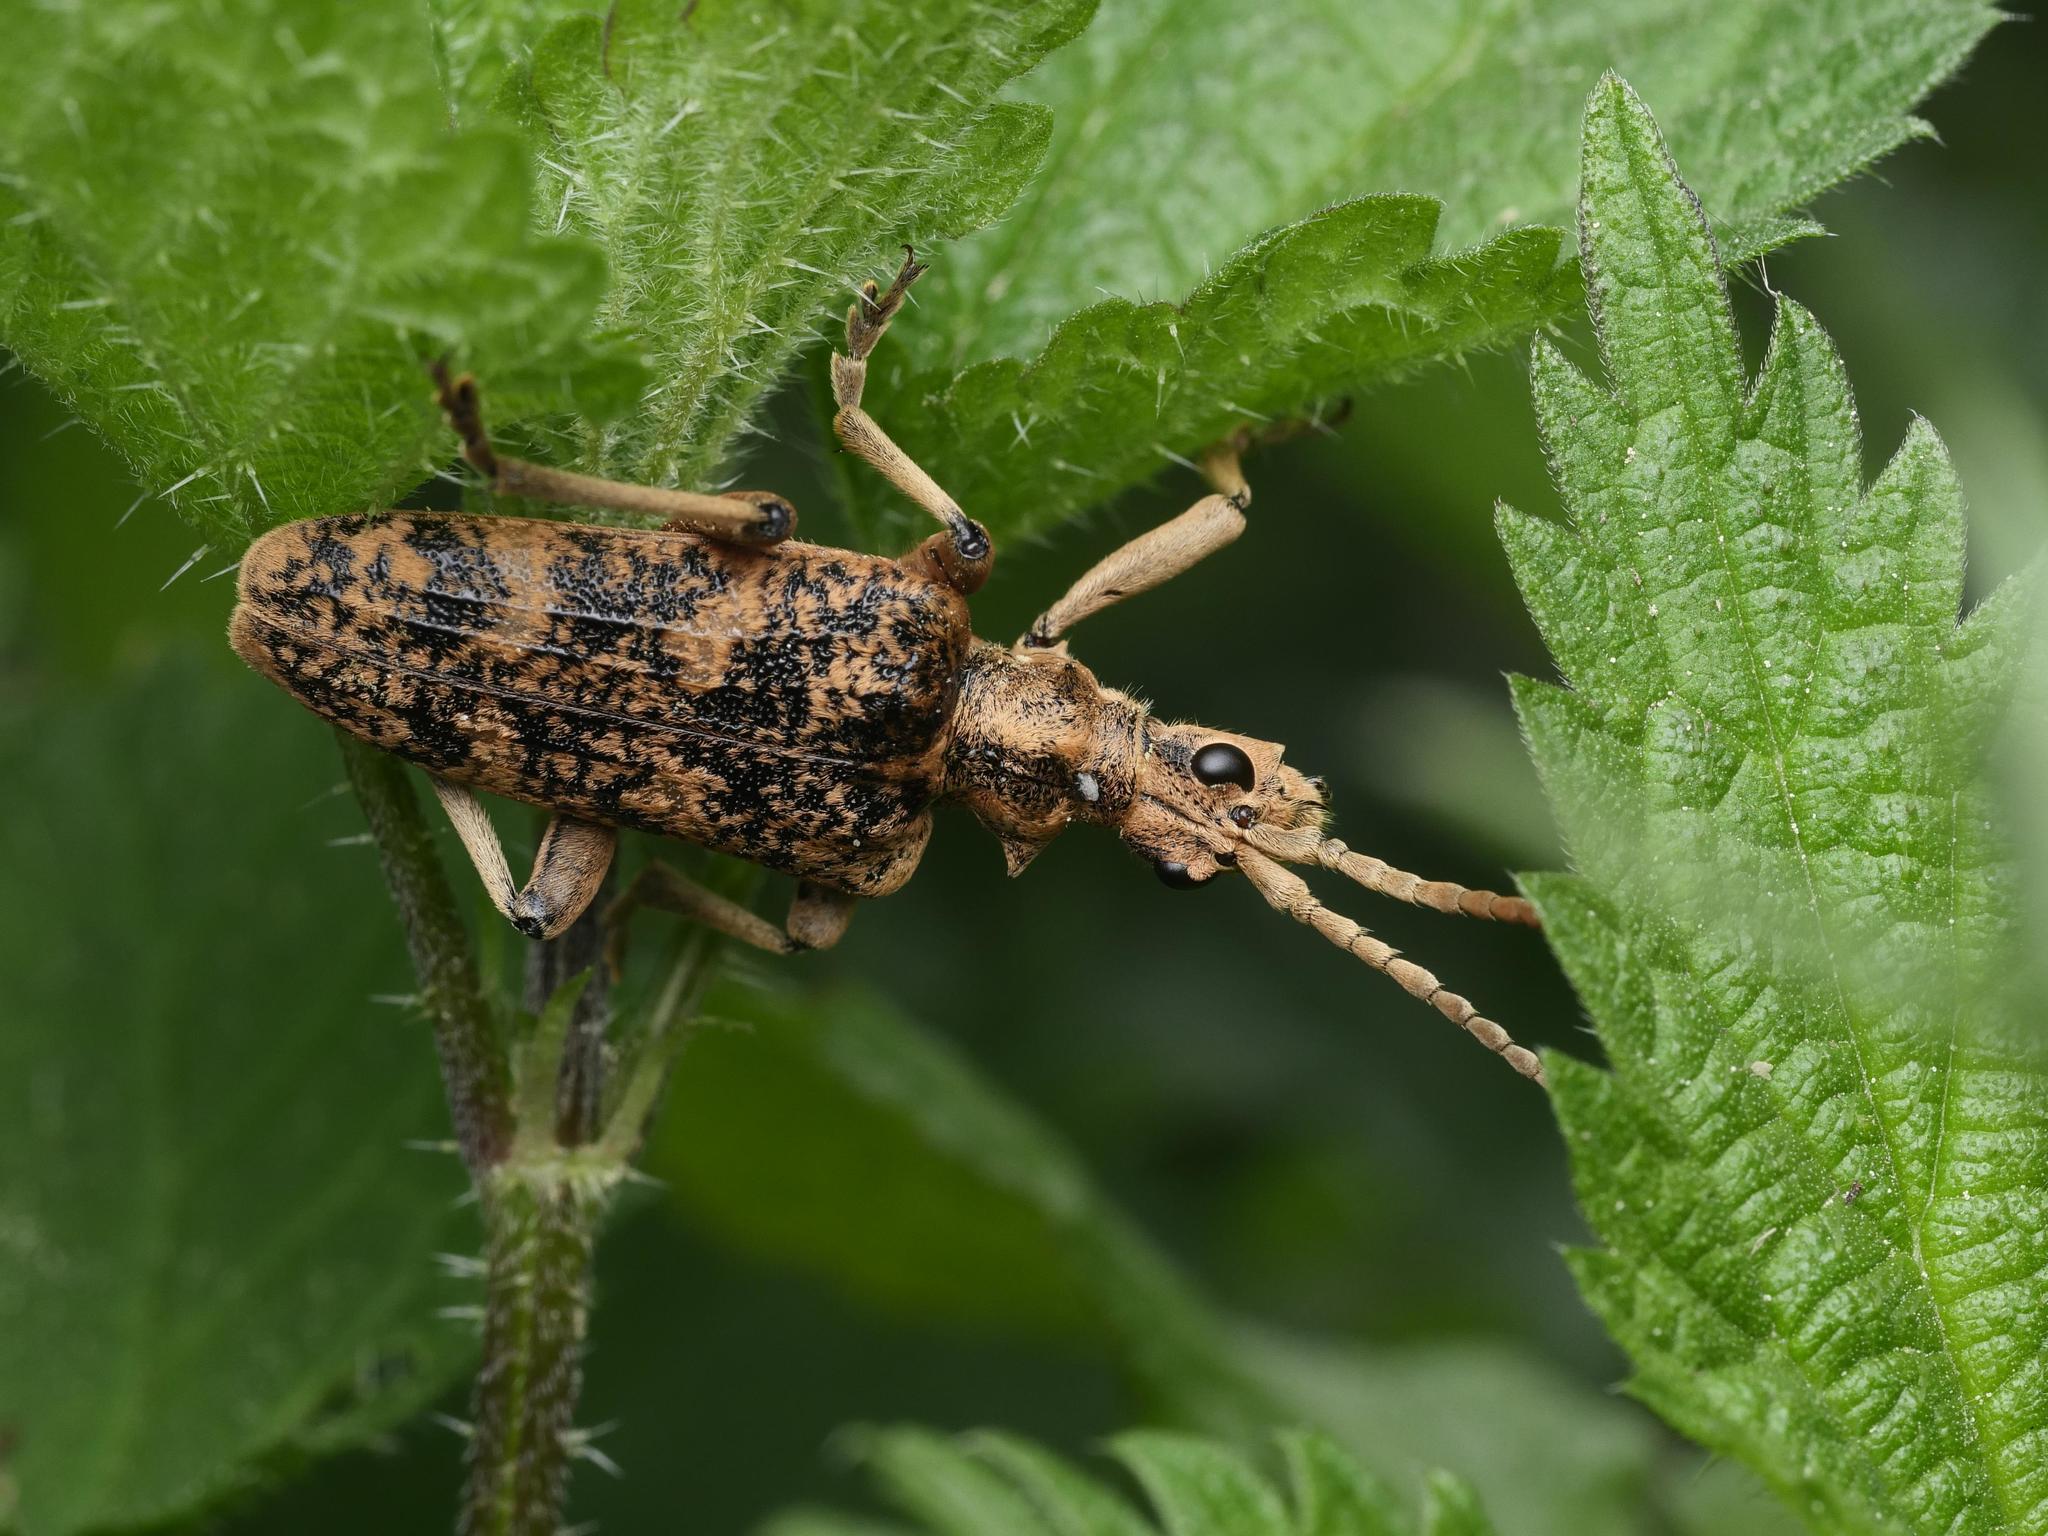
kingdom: Animalia
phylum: Arthropoda
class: Insecta
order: Coleoptera
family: Cerambycidae
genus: Rhagium
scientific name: Rhagium sycophanta
